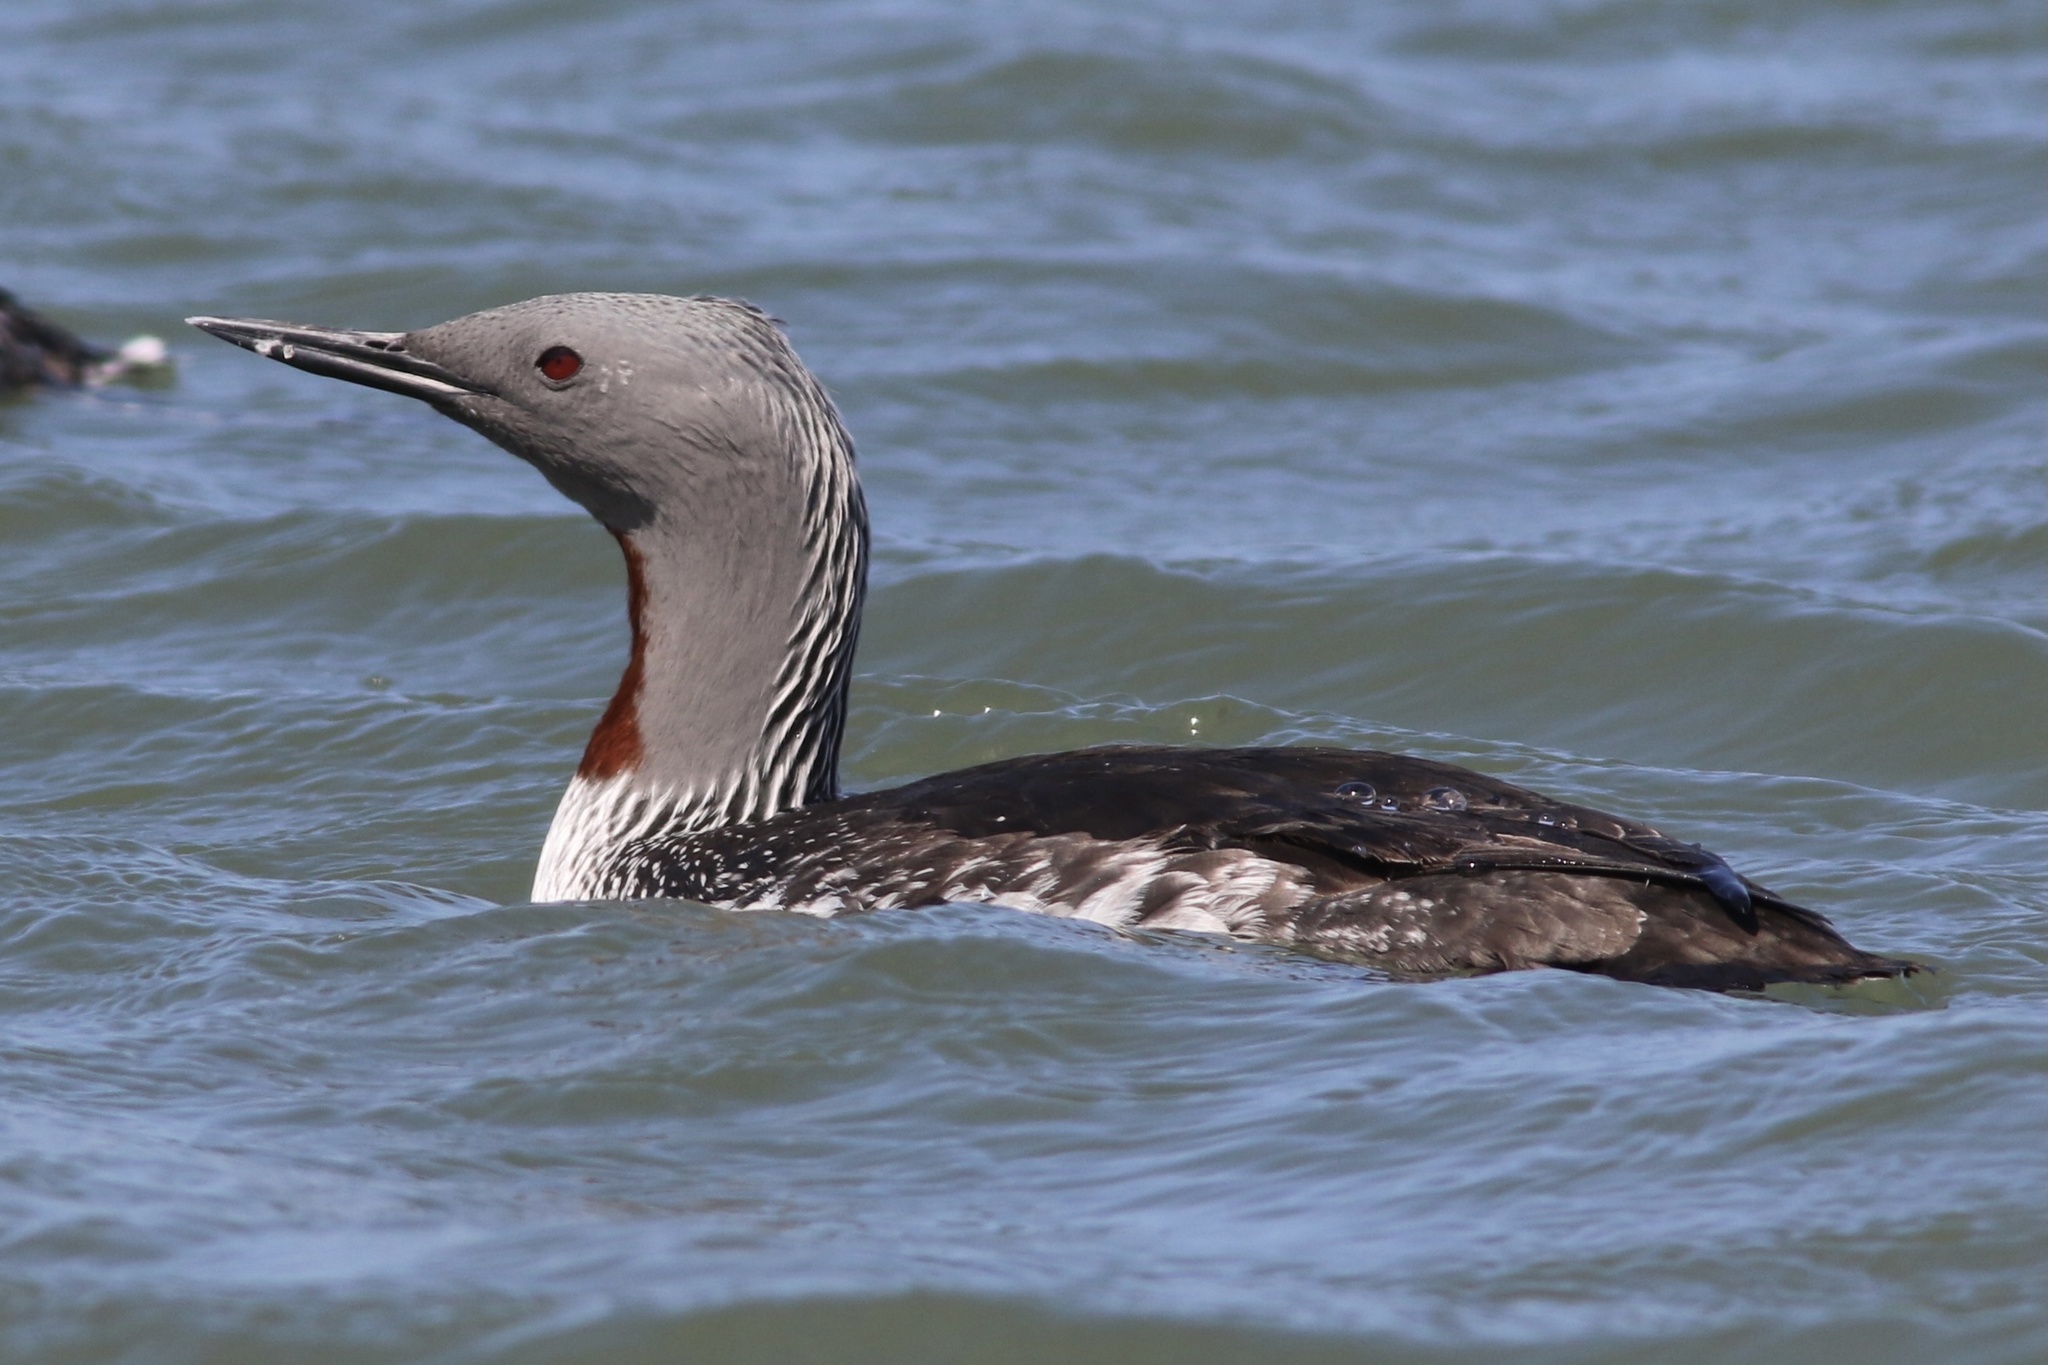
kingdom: Animalia
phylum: Chordata
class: Aves
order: Gaviiformes
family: Gaviidae
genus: Gavia
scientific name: Gavia stellata
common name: Red-throated loon
